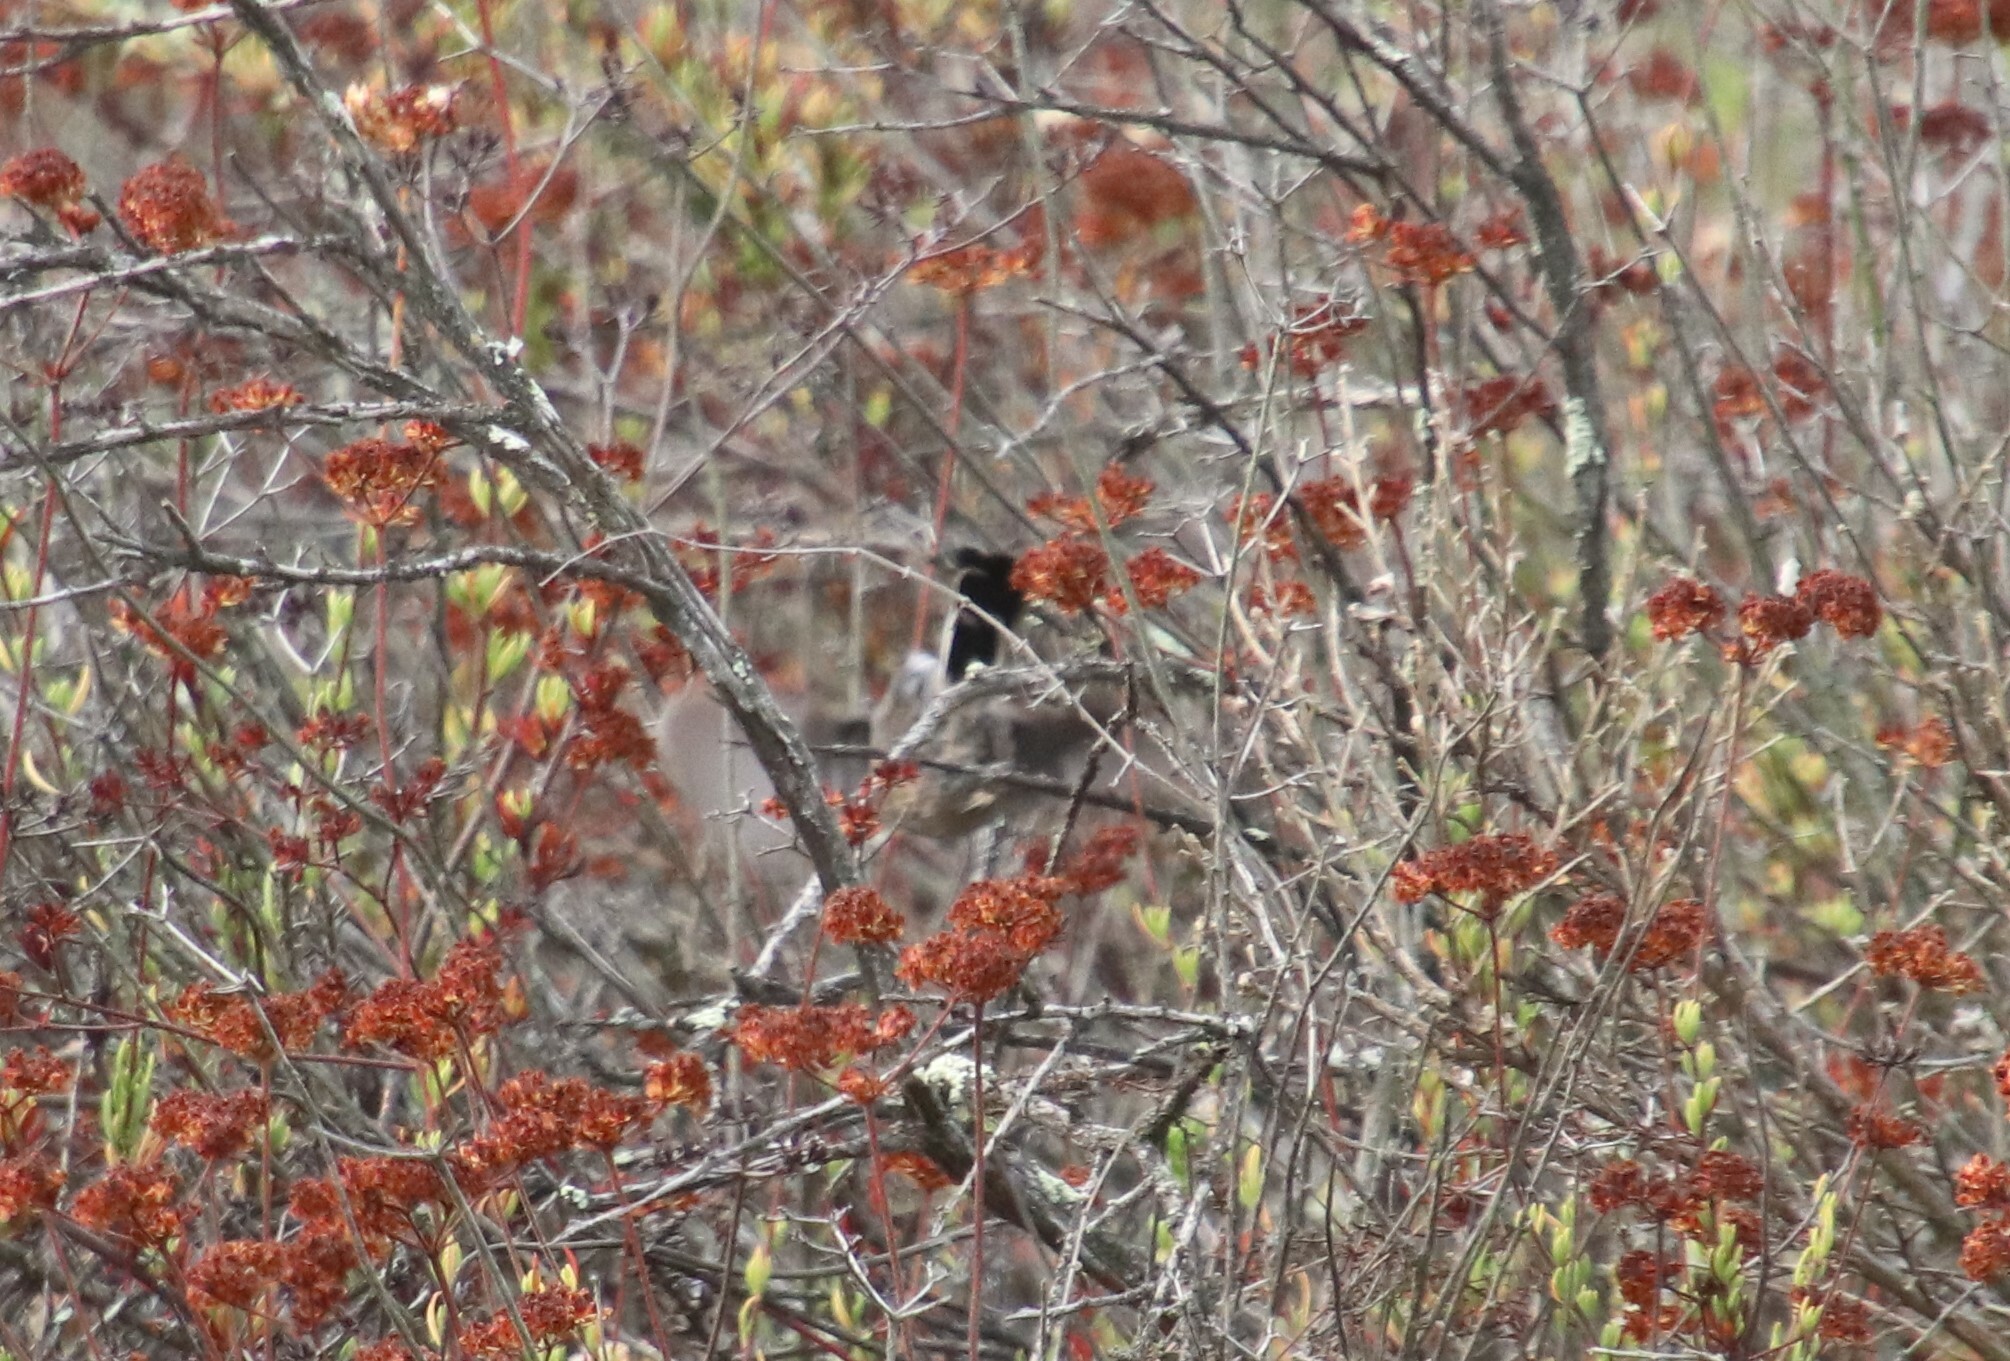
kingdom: Animalia
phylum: Chordata
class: Aves
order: Passeriformes
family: Polioptilidae
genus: Polioptila
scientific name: Polioptila californica
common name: California gnatcatcher
